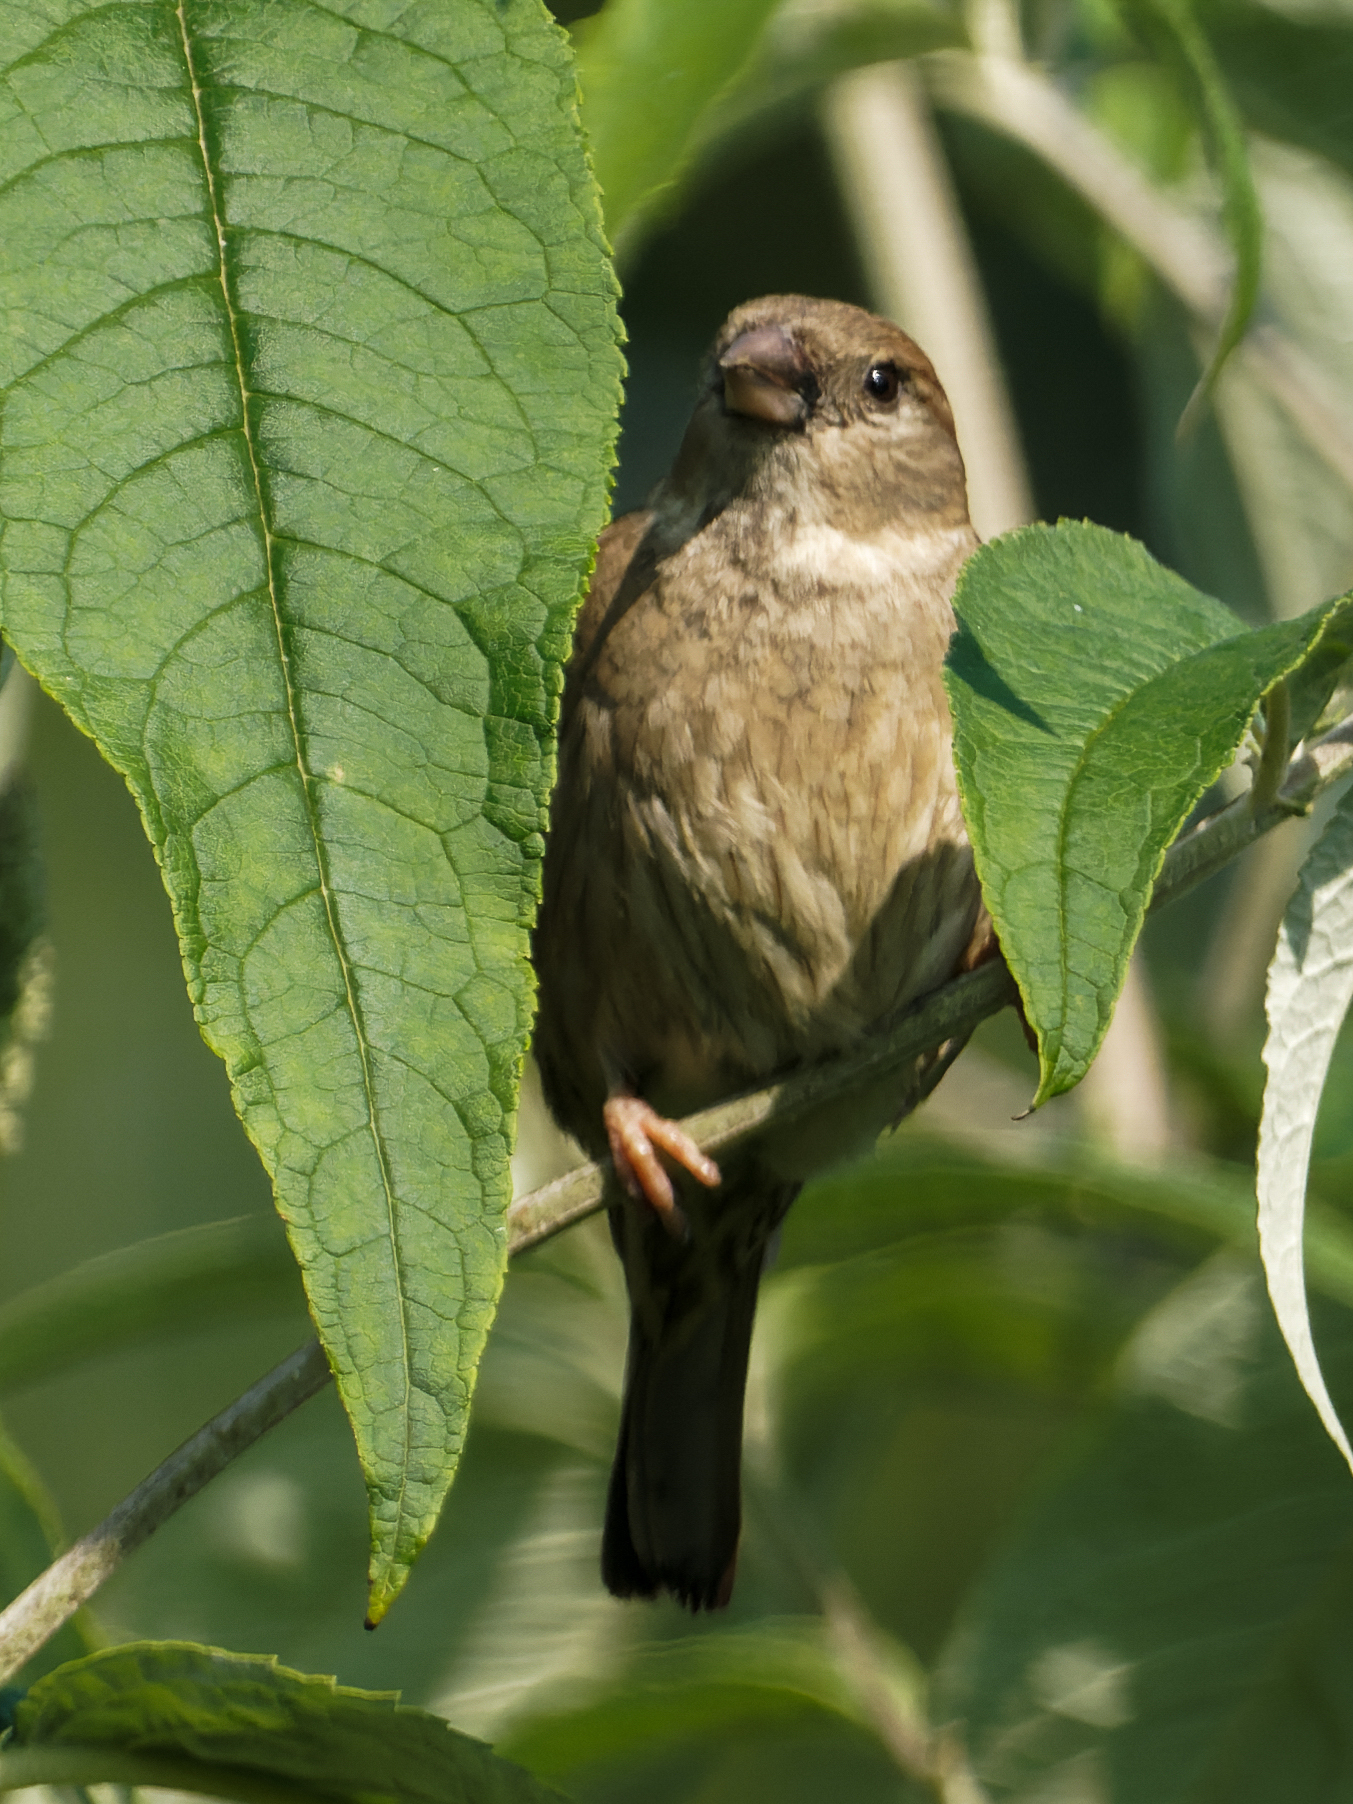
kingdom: Animalia
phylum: Chordata
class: Aves
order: Passeriformes
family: Passeridae
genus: Passer
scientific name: Passer domesticus
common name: House sparrow
